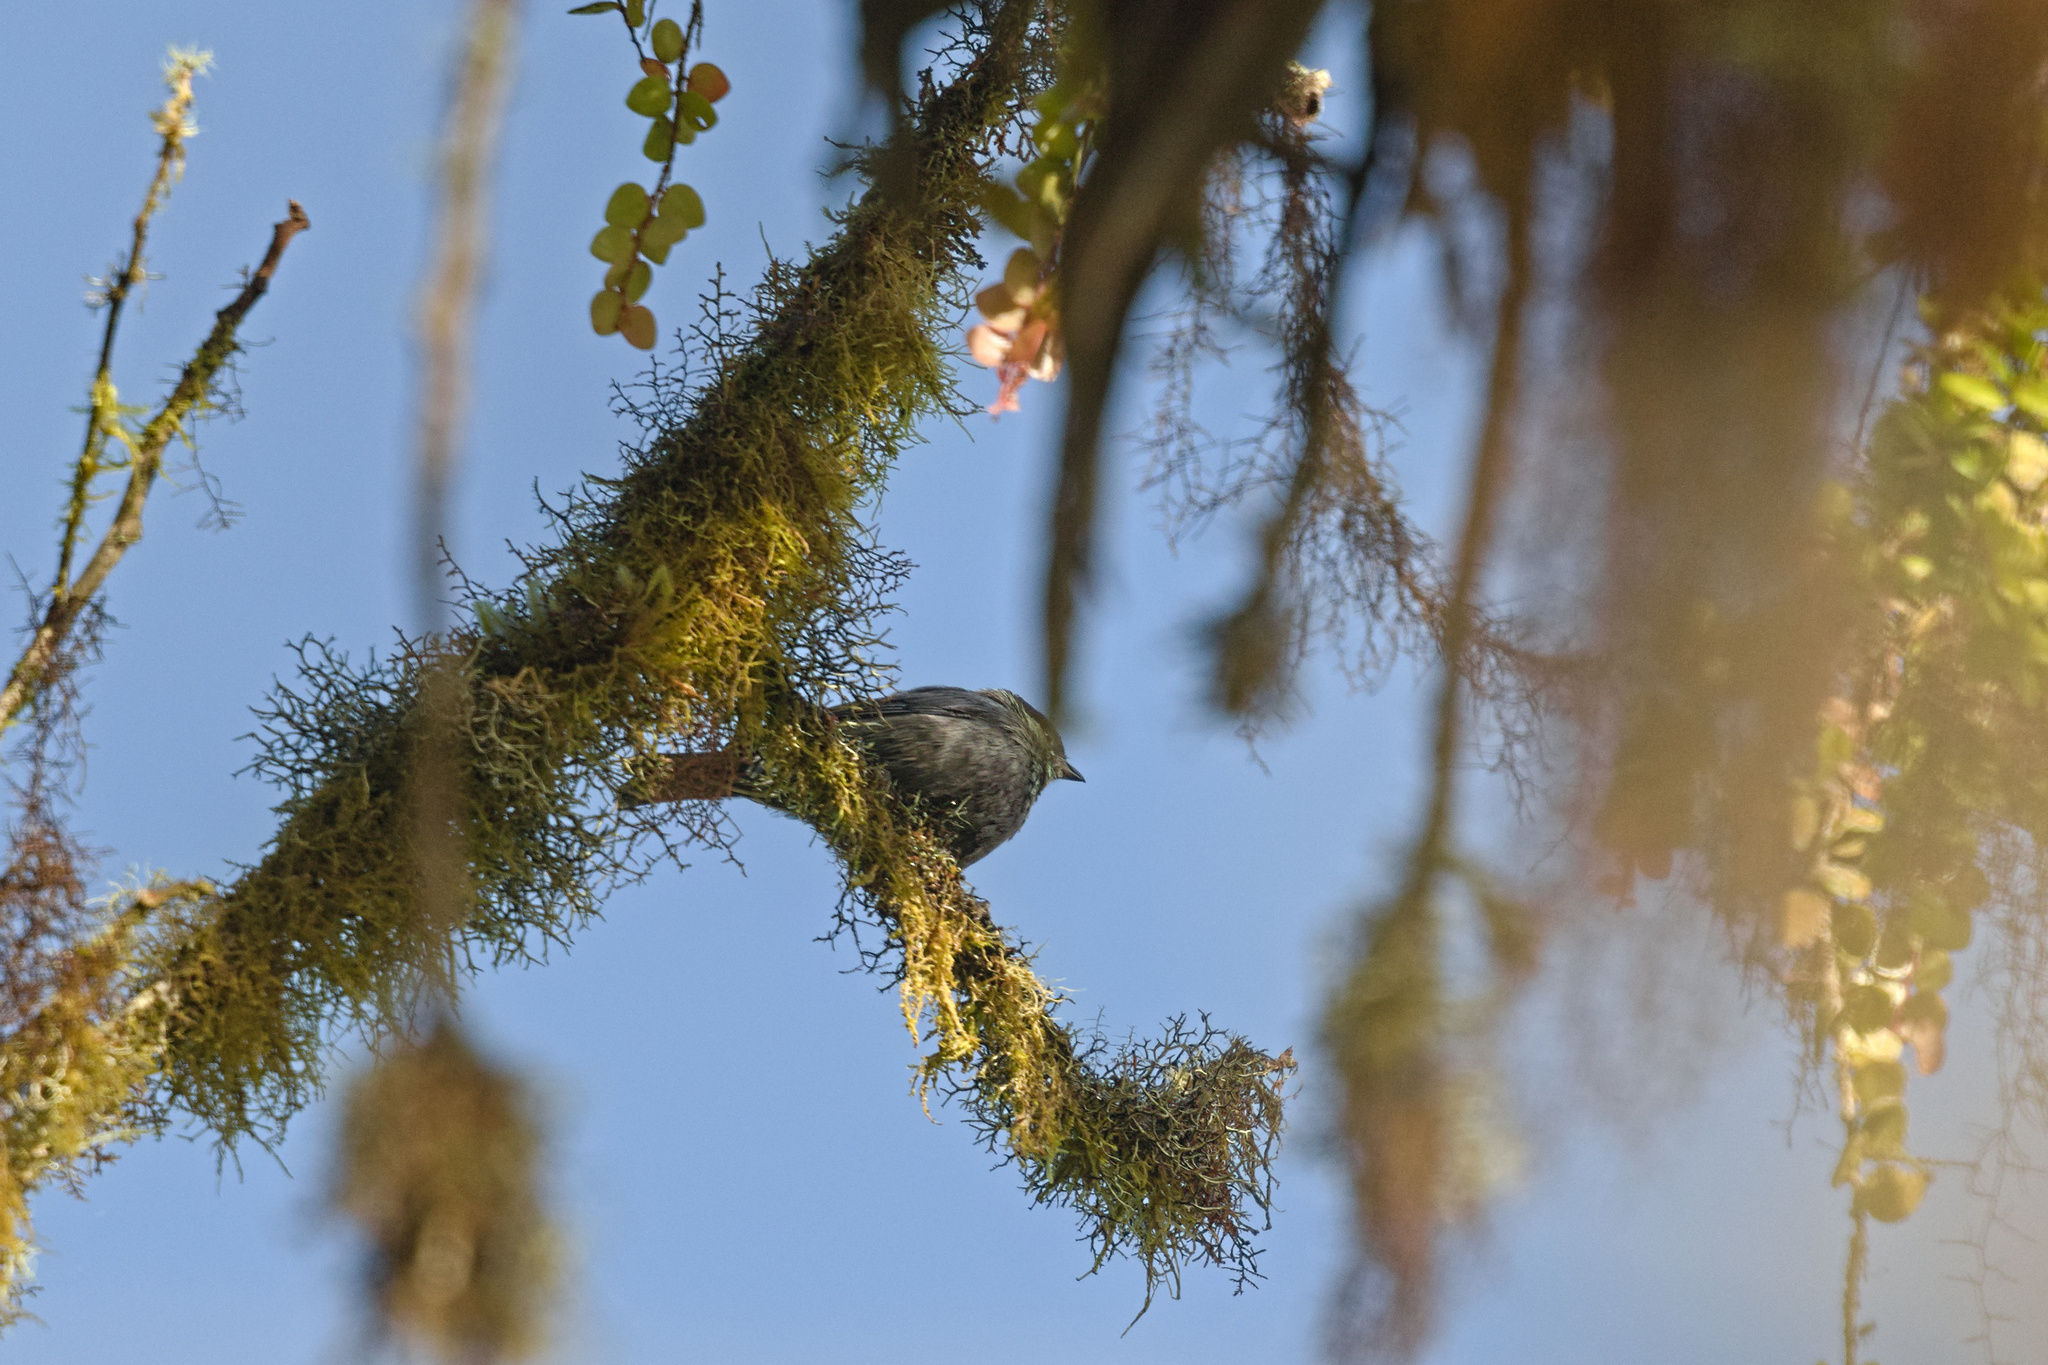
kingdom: Animalia
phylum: Chordata
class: Aves
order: Passeriformes
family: Thraupidae
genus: Stilpnia
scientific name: Stilpnia heinei
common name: Black-capped tanager
